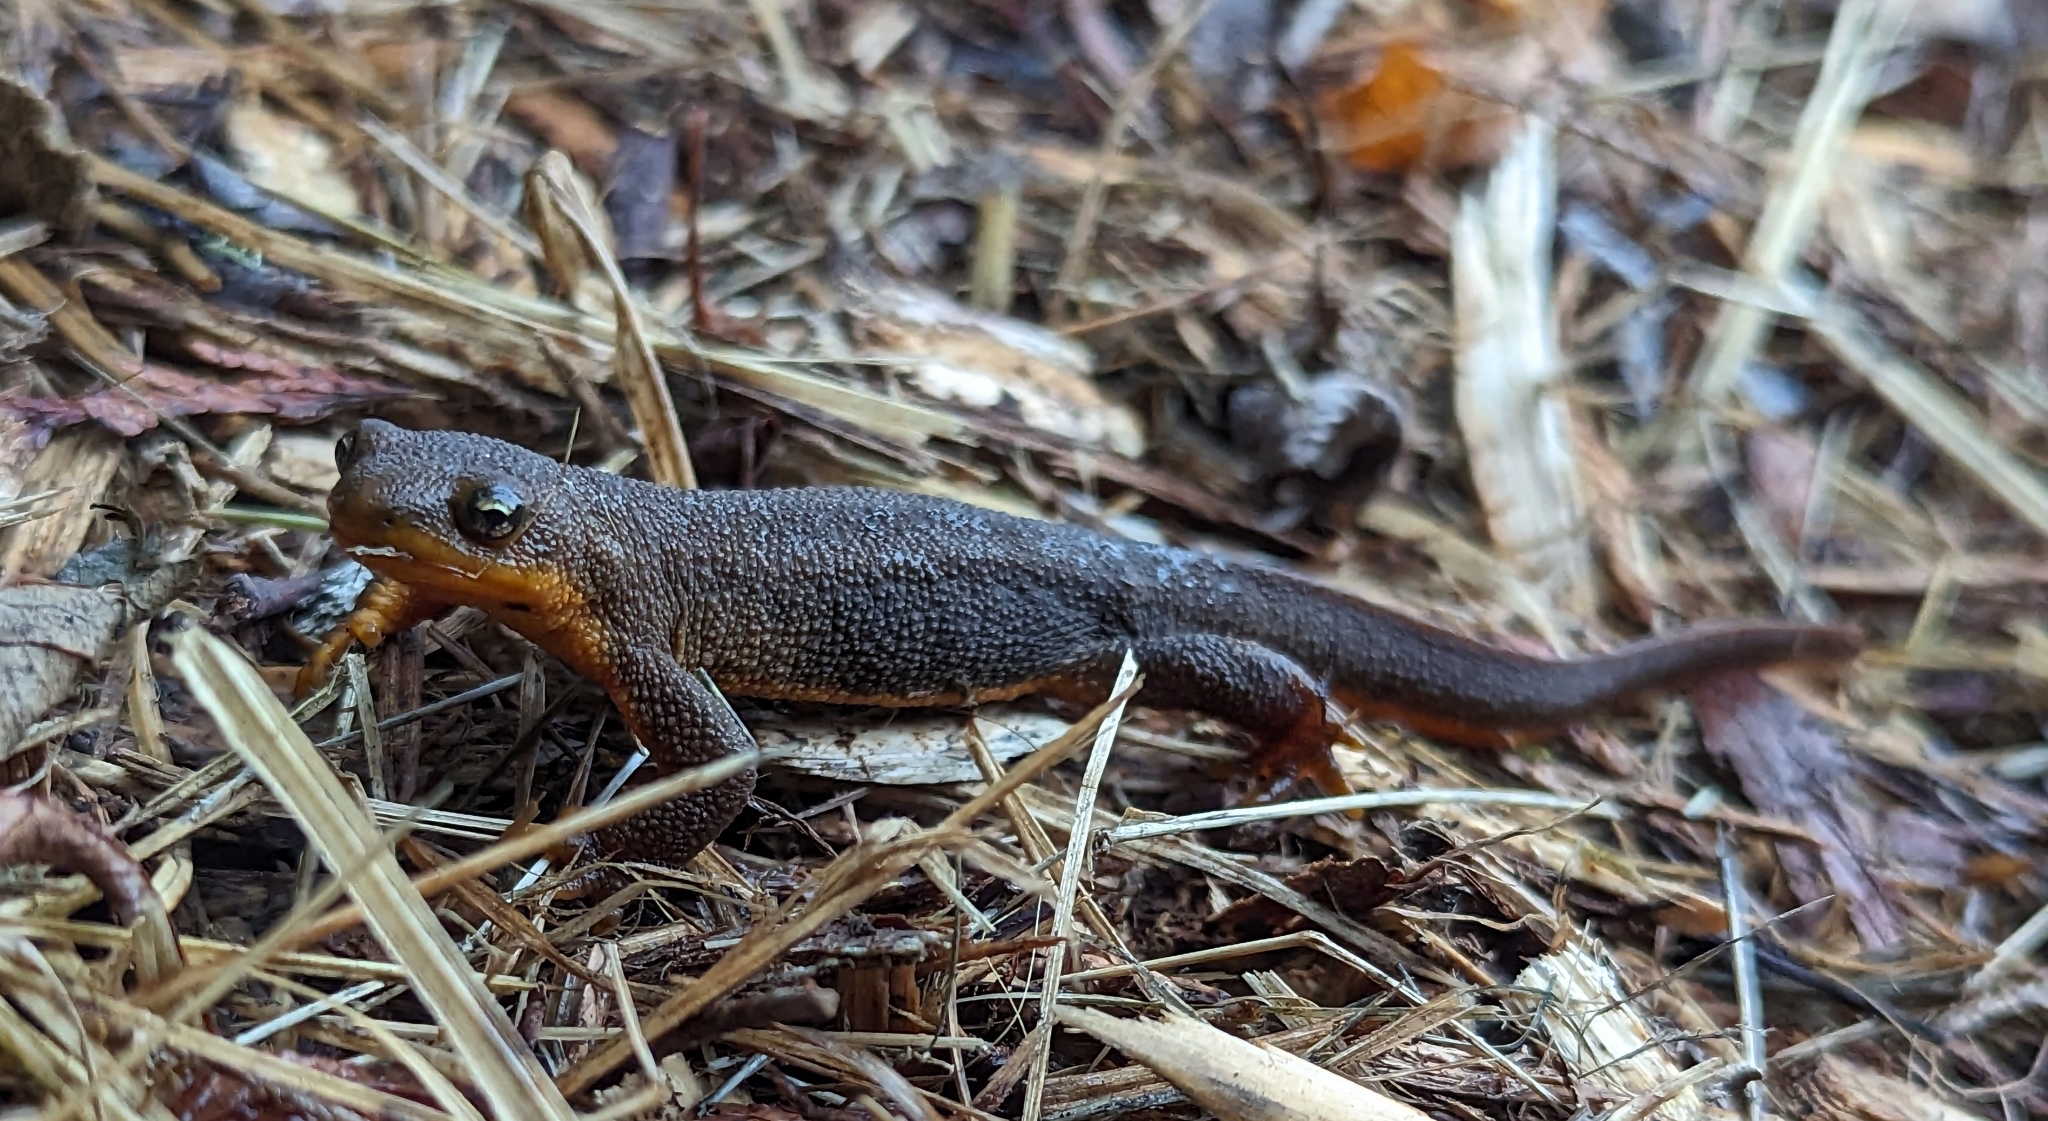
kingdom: Animalia
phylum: Chordata
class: Amphibia
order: Caudata
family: Salamandridae
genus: Taricha
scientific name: Taricha granulosa
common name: Roughskin newt
